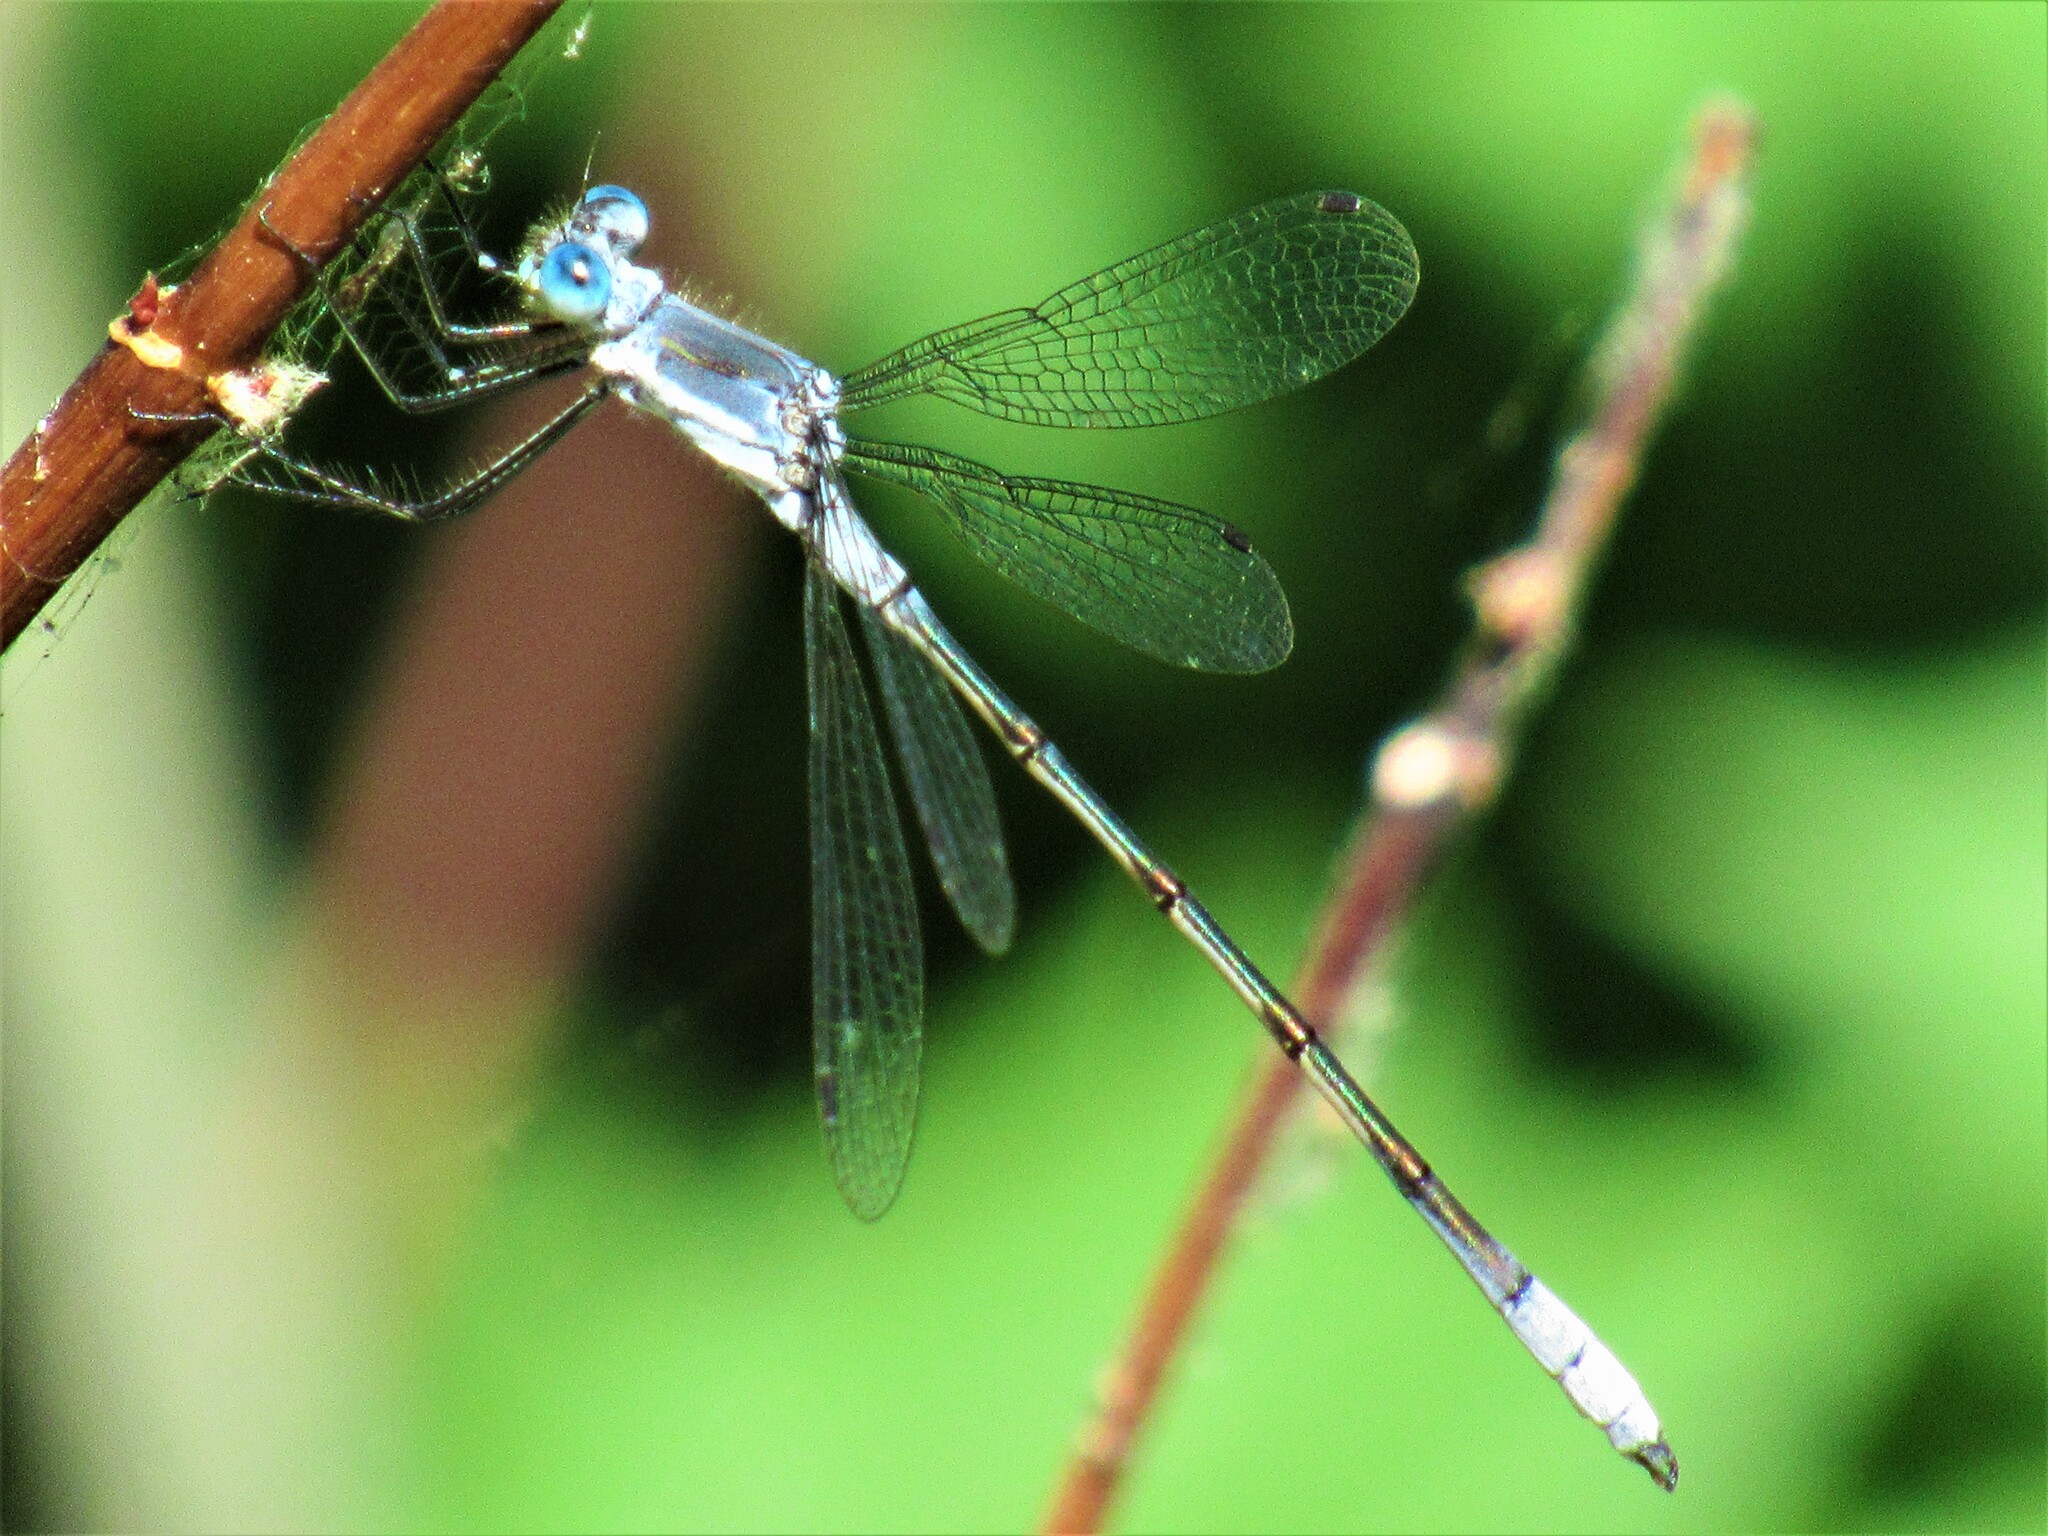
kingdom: Animalia
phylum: Arthropoda
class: Insecta
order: Odonata
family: Lestidae
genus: Lestes
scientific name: Lestes disjunctus
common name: Northern spreadwing
